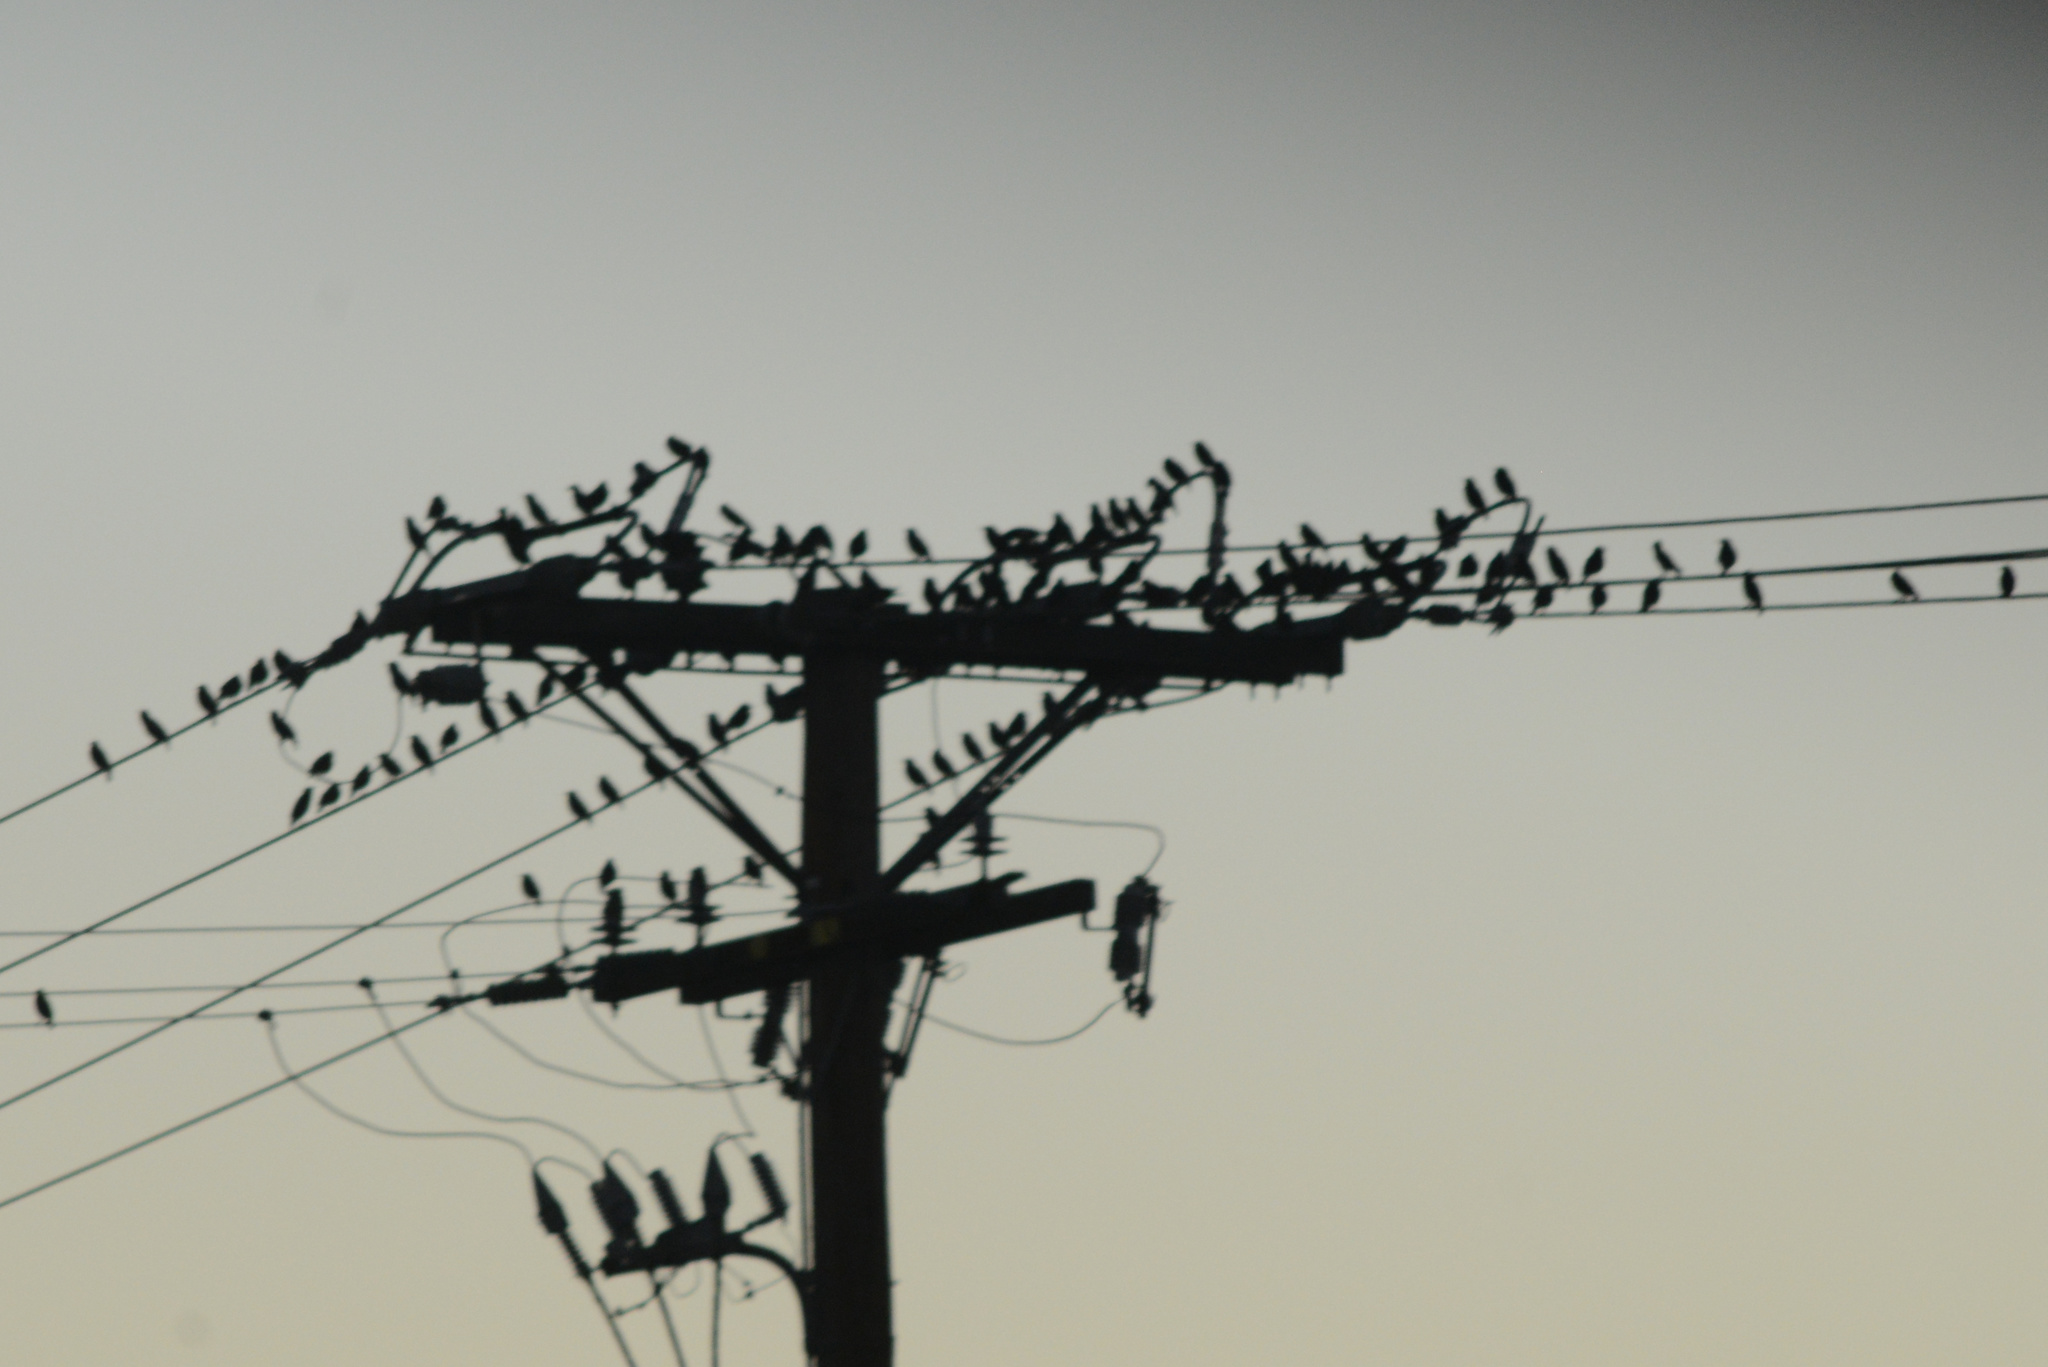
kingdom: Animalia
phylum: Chordata
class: Aves
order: Passeriformes
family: Sturnidae
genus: Sturnus
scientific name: Sturnus vulgaris
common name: Common starling
